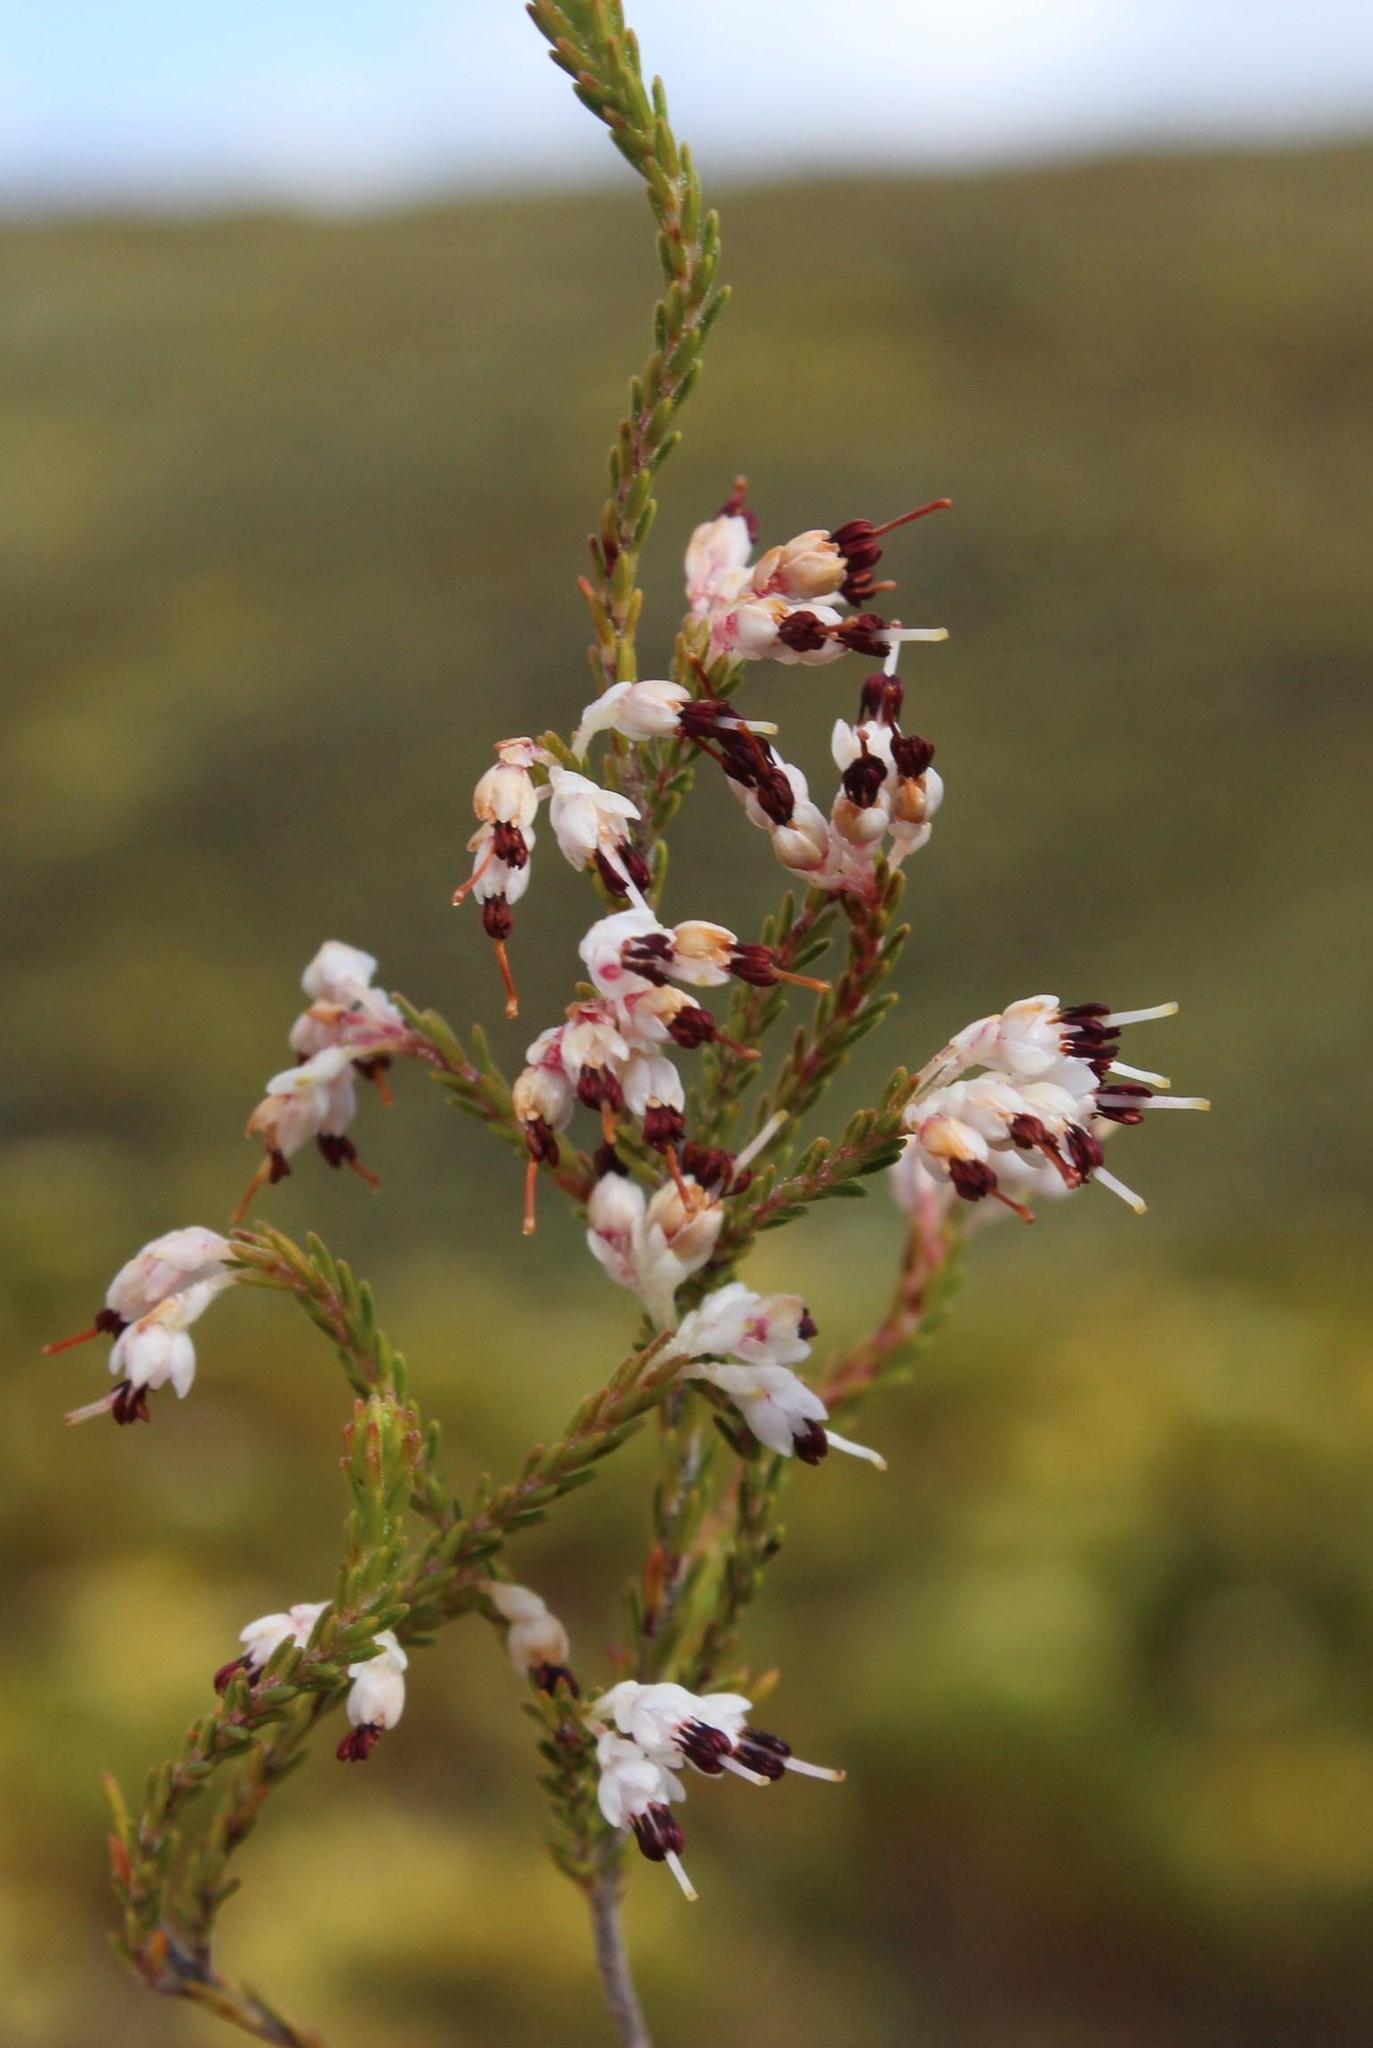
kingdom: Plantae
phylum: Tracheophyta
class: Magnoliopsida
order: Ericales
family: Ericaceae
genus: Erica
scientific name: Erica imbricata
